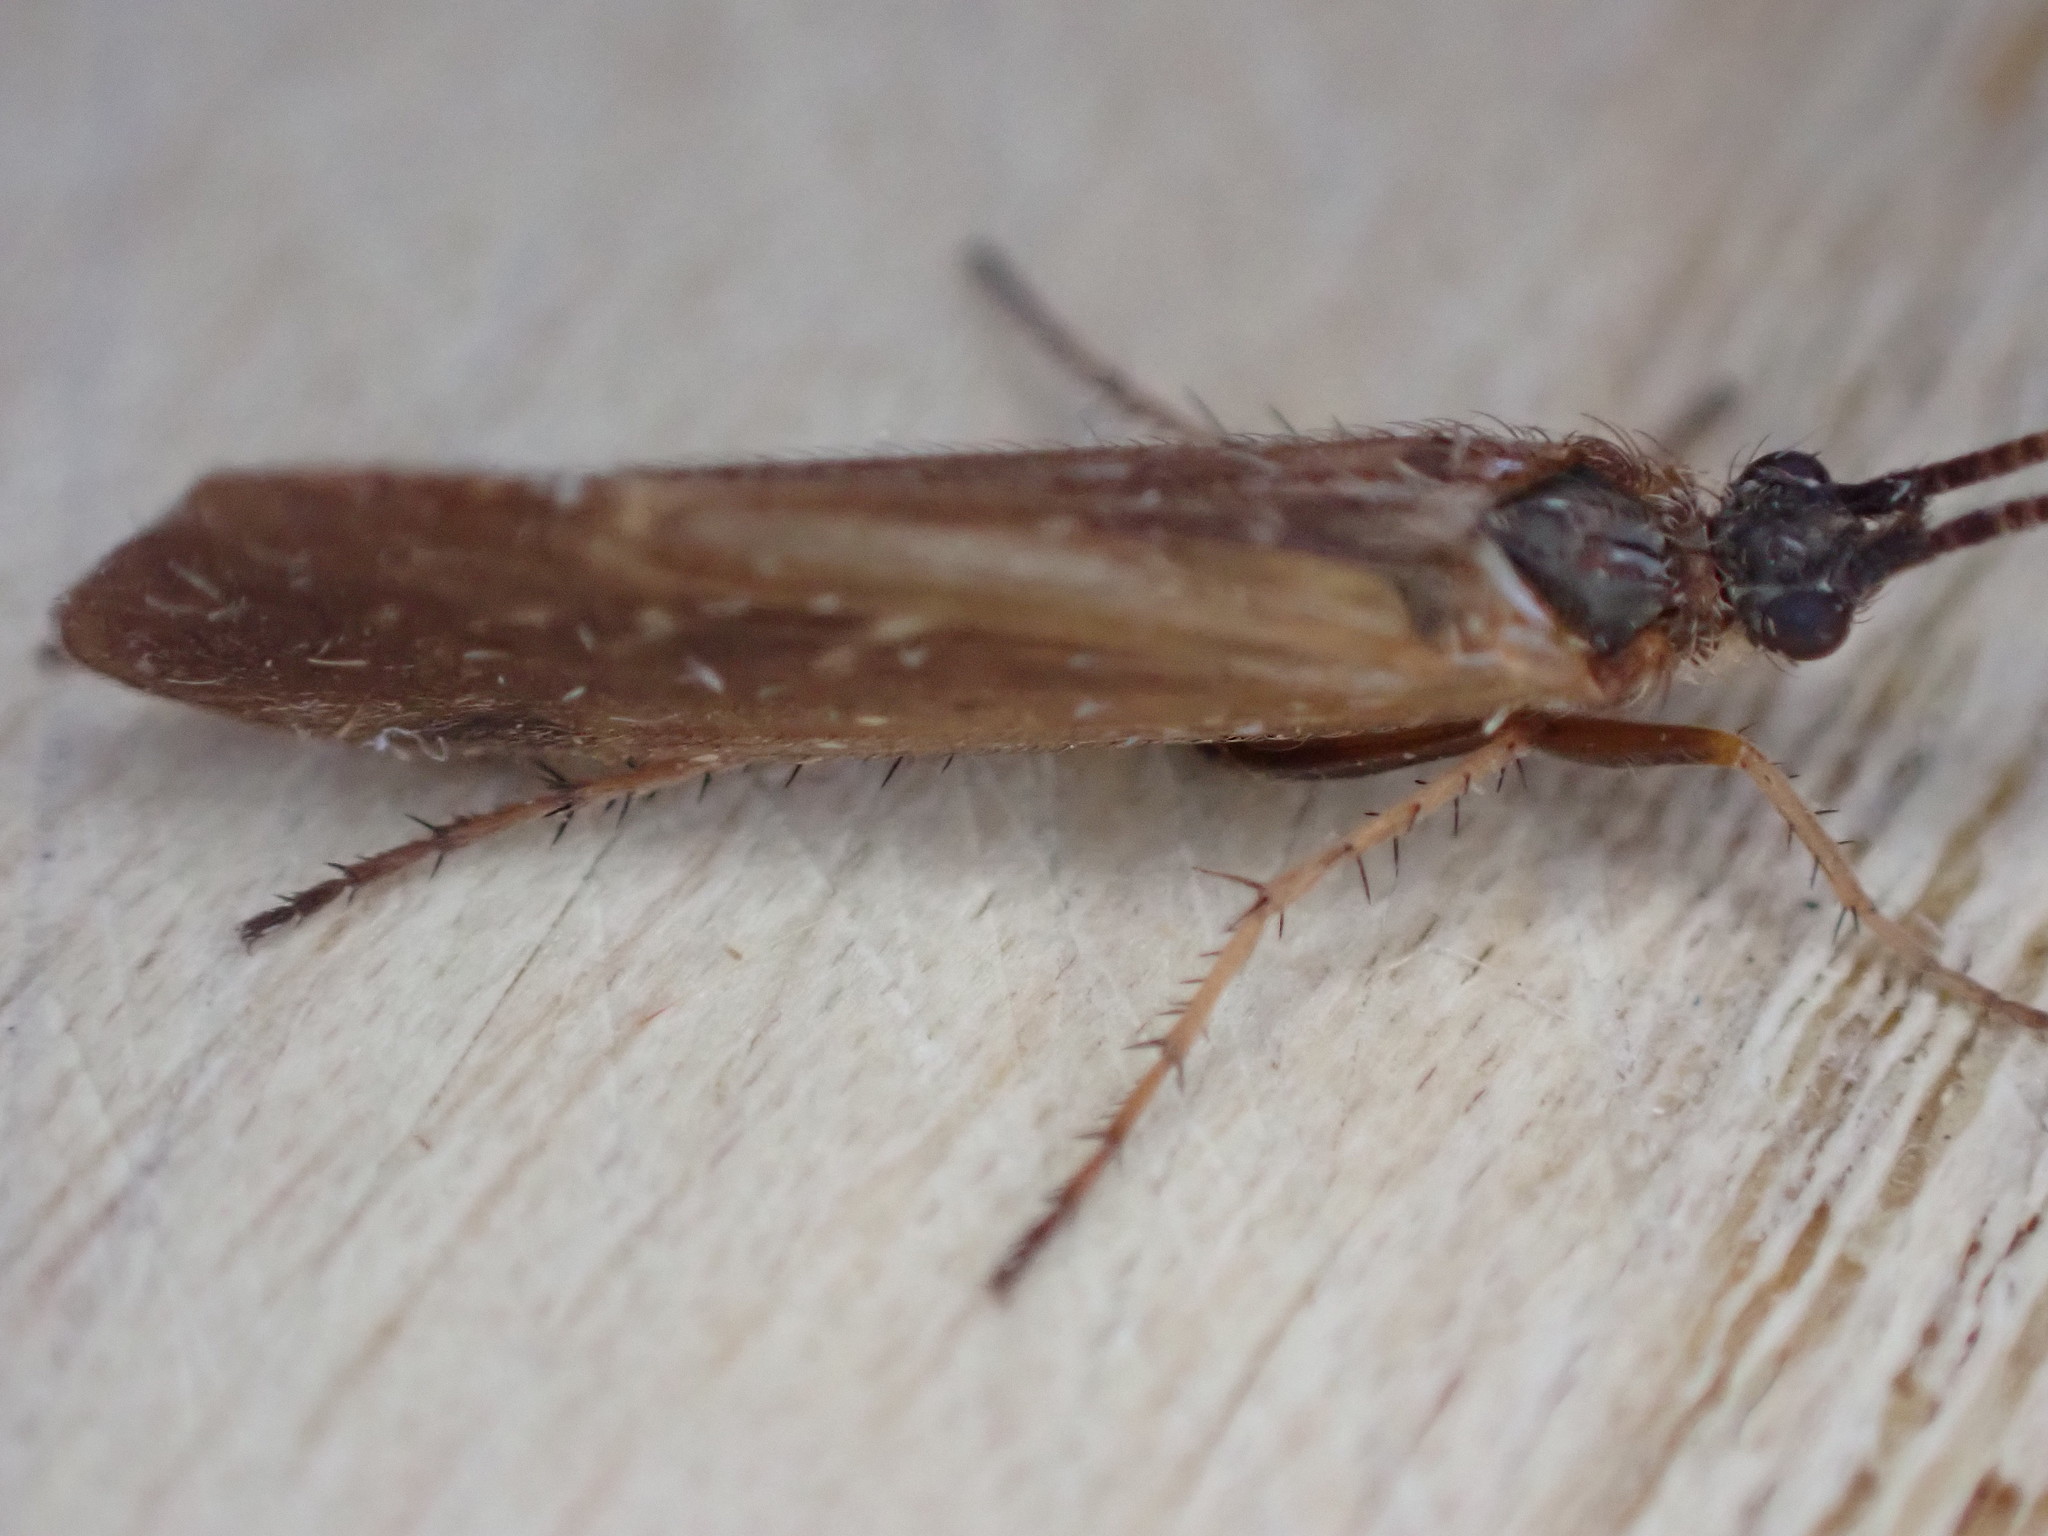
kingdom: Animalia
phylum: Arthropoda
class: Insecta
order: Trichoptera
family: Limnephilidae
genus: Limnephilus
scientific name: Limnephilus auricula
